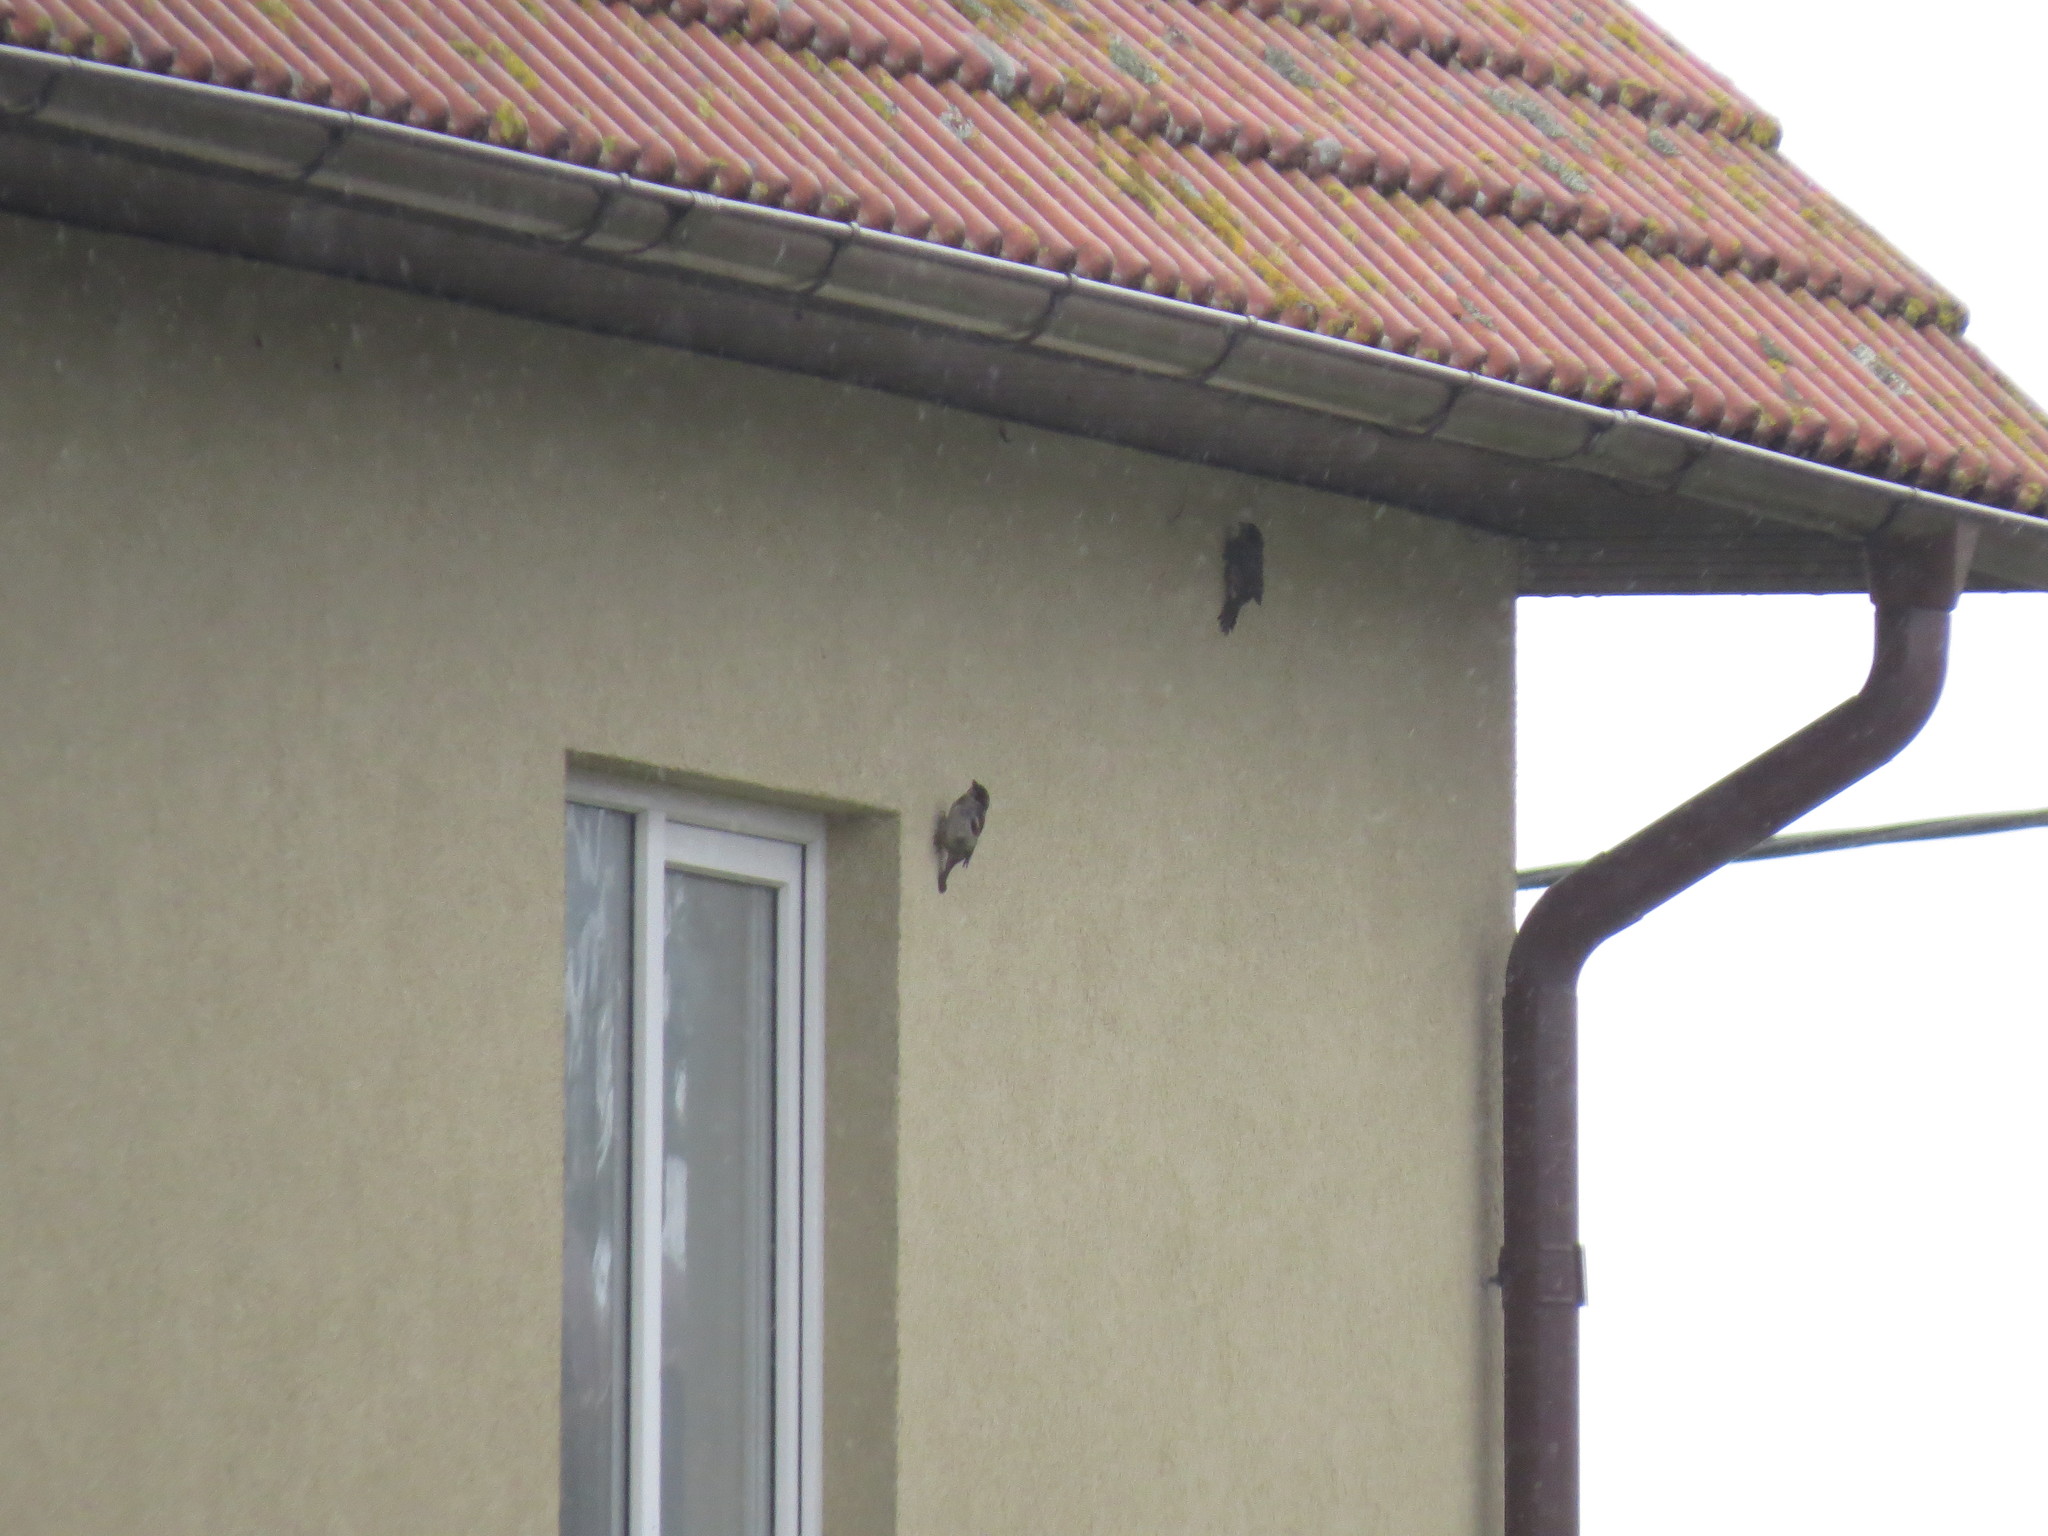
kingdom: Animalia
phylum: Chordata
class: Aves
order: Passeriformes
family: Passeridae
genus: Passer
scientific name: Passer domesticus
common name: House sparrow
